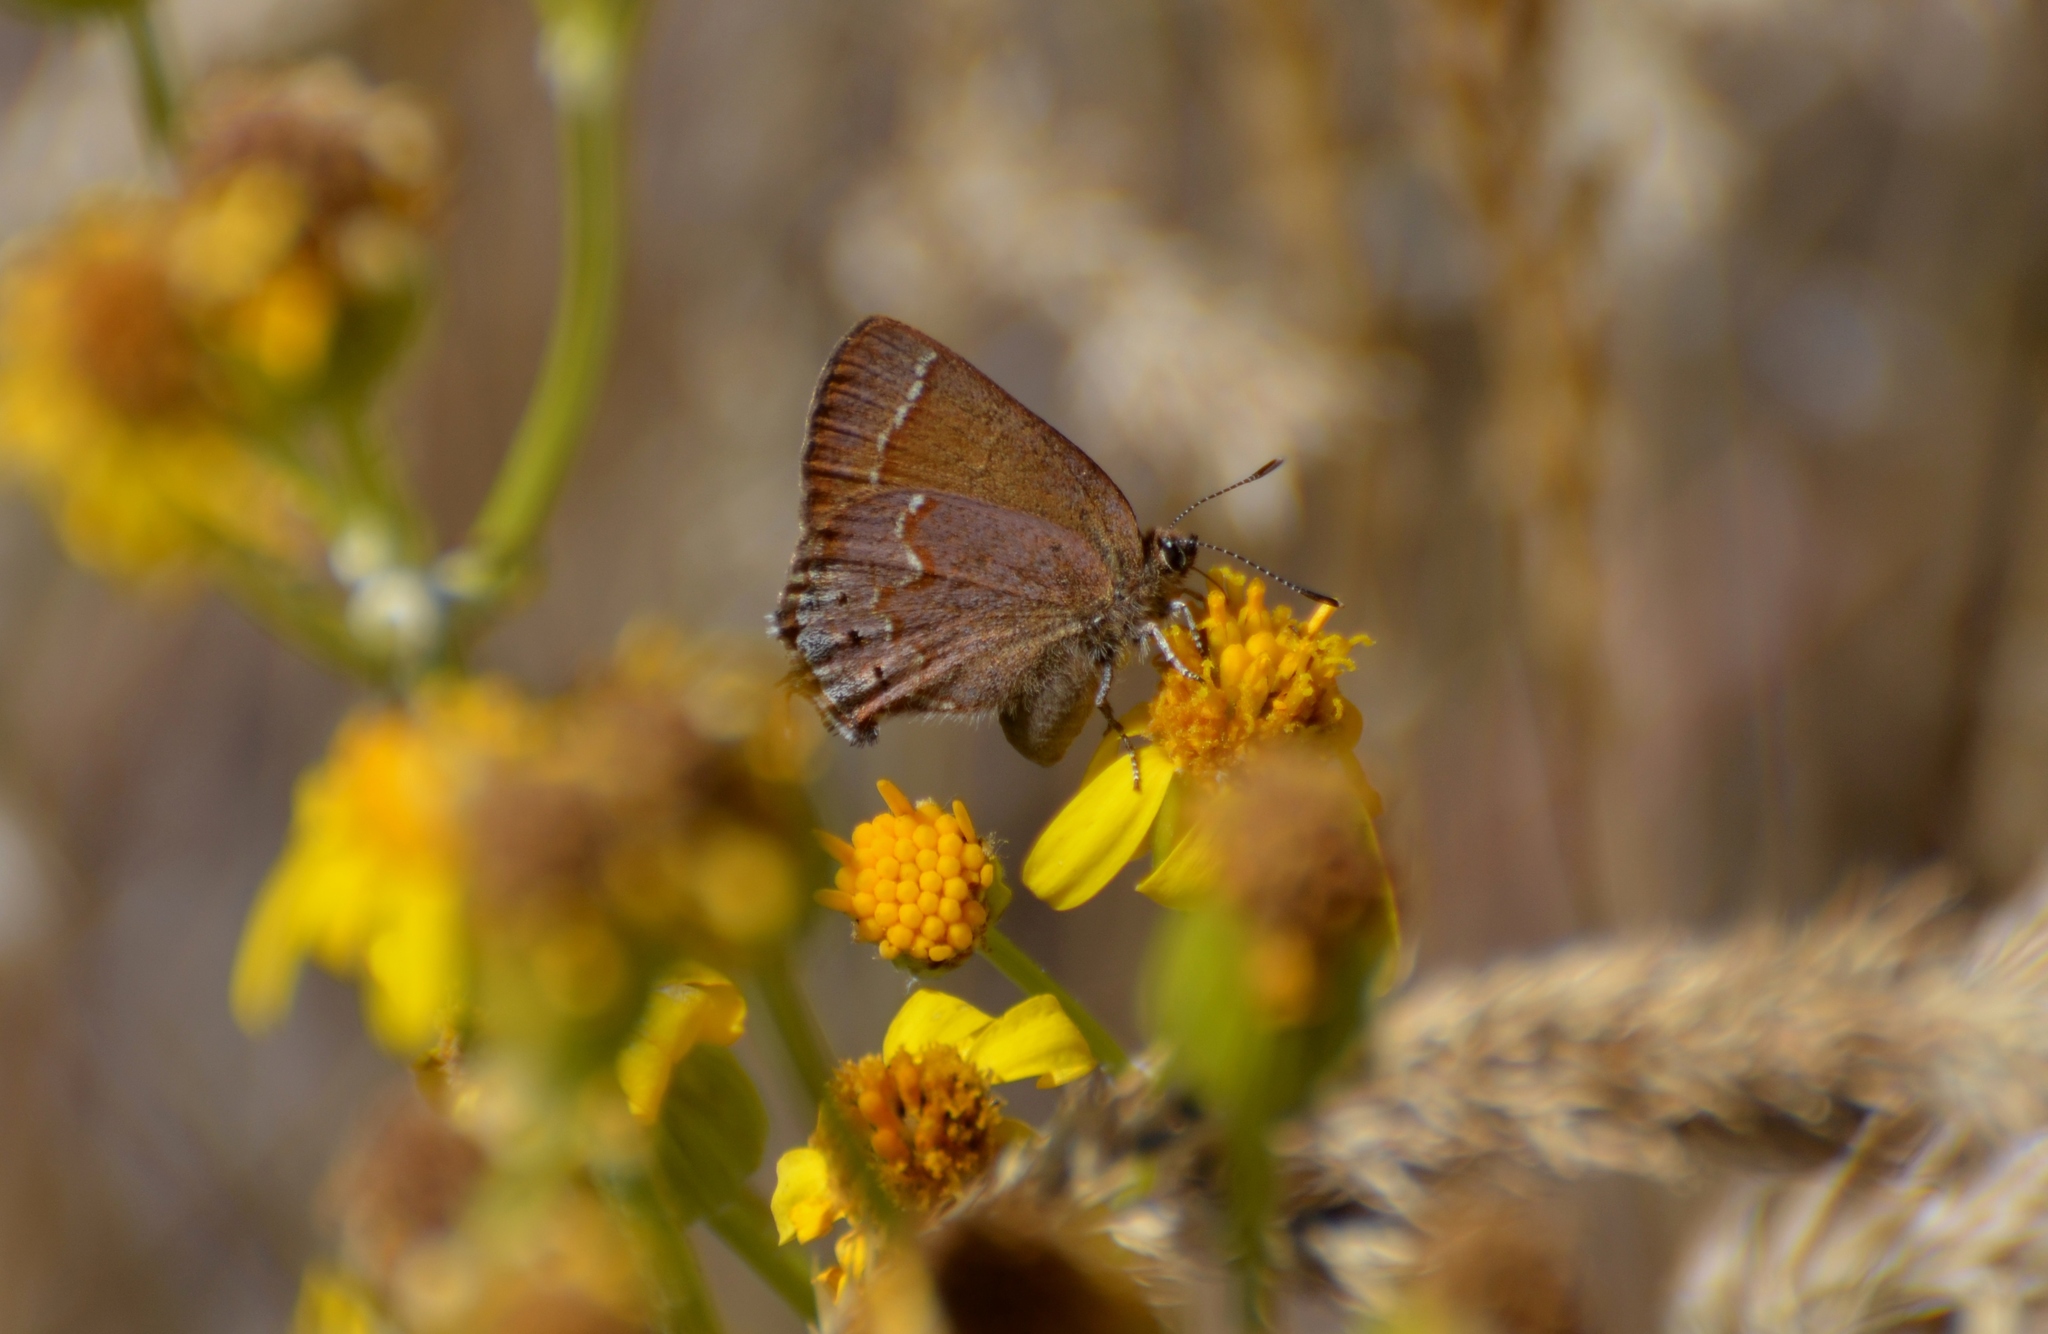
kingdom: Animalia
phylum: Arthropoda
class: Insecta
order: Lepidoptera
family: Lycaenidae
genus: Mitoura
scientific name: Mitoura gryneus
